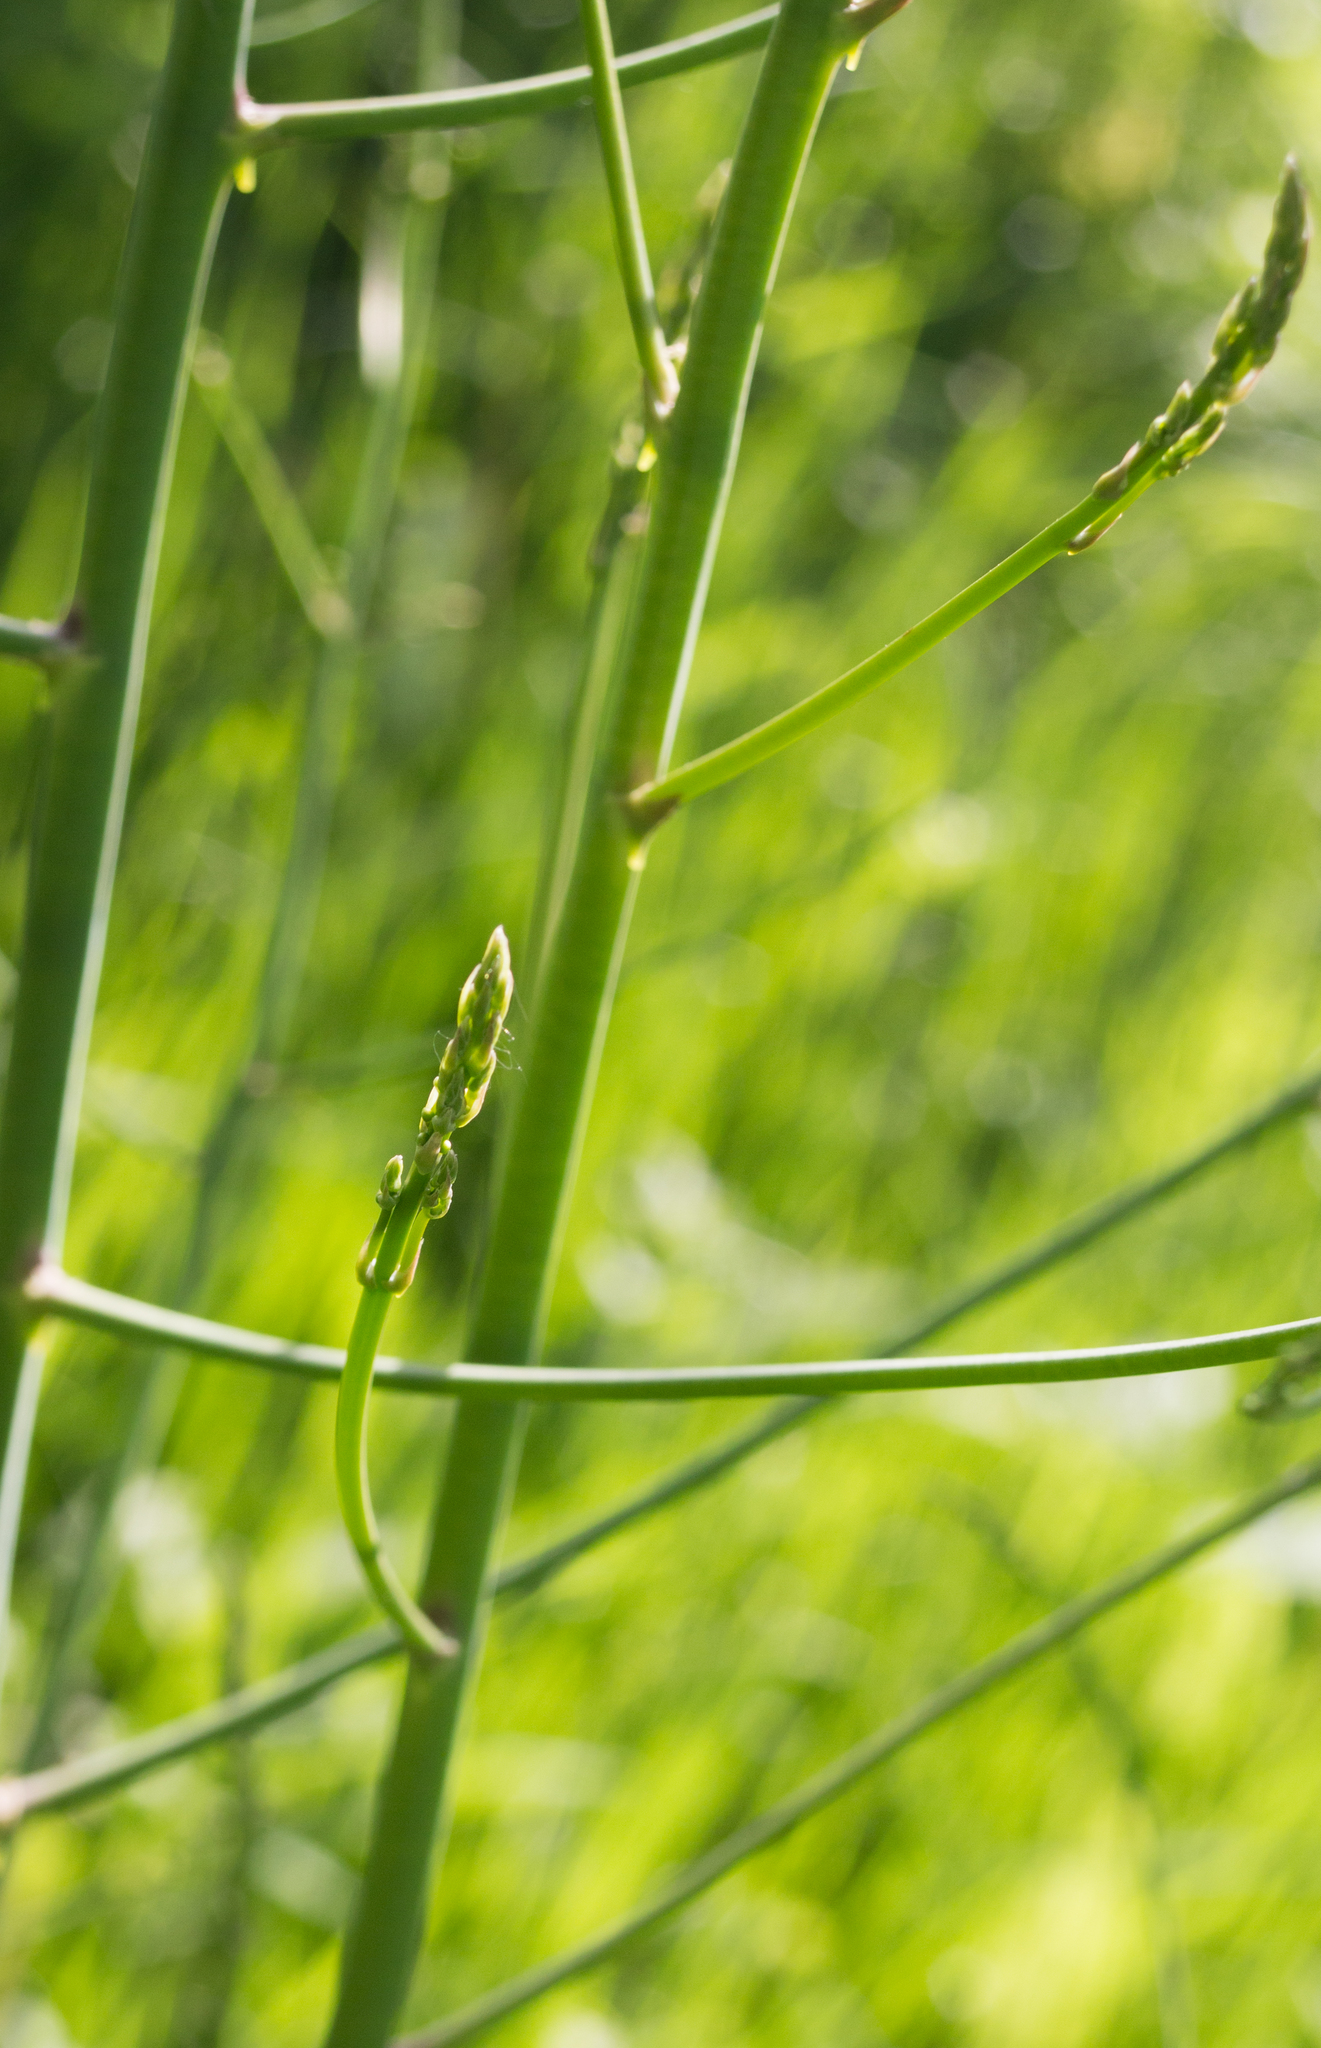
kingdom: Plantae
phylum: Tracheophyta
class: Liliopsida
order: Asparagales
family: Asparagaceae
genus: Asparagus
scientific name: Asparagus officinalis
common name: Garden asparagus
